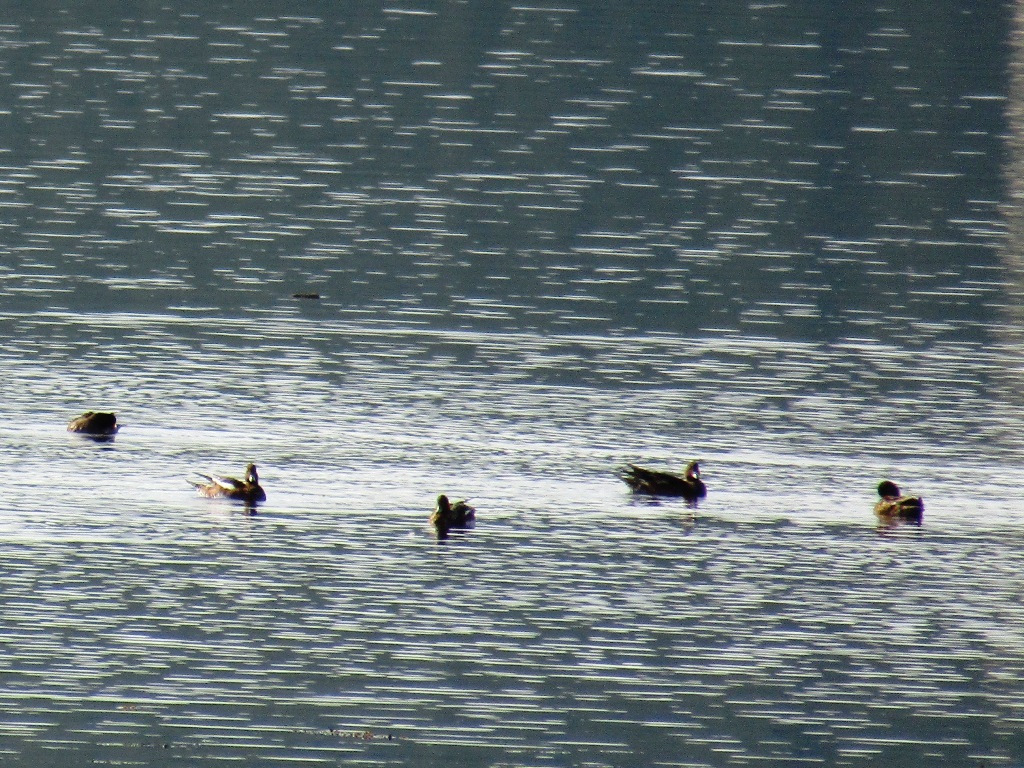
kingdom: Animalia
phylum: Chordata
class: Aves
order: Anseriformes
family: Anatidae
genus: Mareca
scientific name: Mareca penelope
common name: Eurasian wigeon
